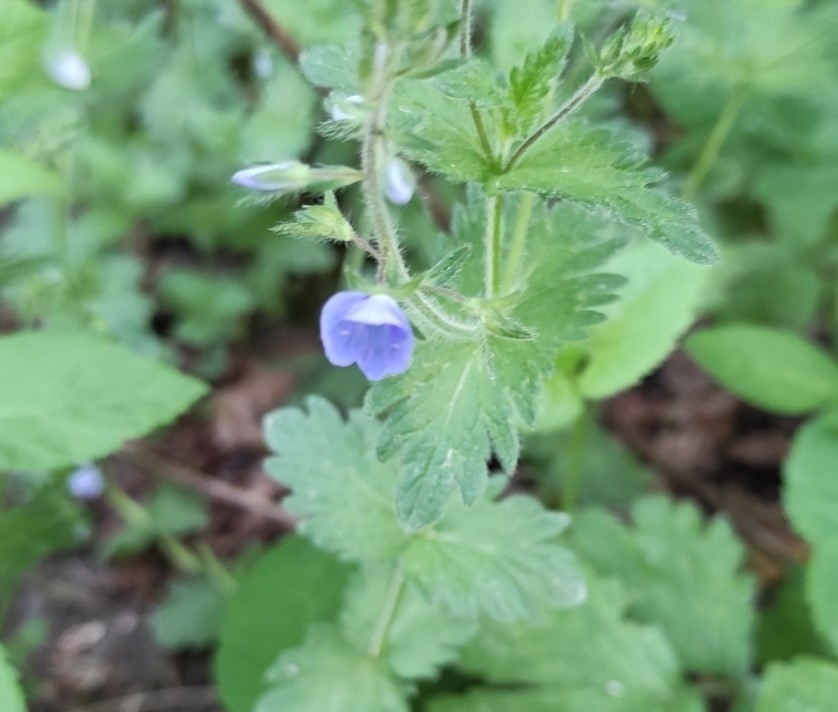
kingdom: Plantae
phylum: Tracheophyta
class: Magnoliopsida
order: Lamiales
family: Plantaginaceae
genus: Veronica
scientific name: Veronica chamaedrys
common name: Germander speedwell
